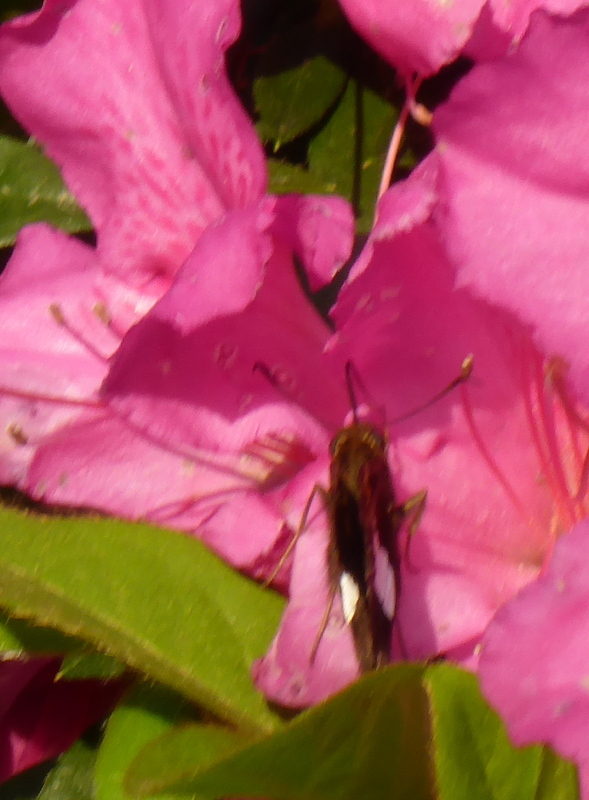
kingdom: Animalia
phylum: Arthropoda
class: Insecta
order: Lepidoptera
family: Hesperiidae
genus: Epargyreus
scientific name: Epargyreus clarus
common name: Silver-spotted skipper
